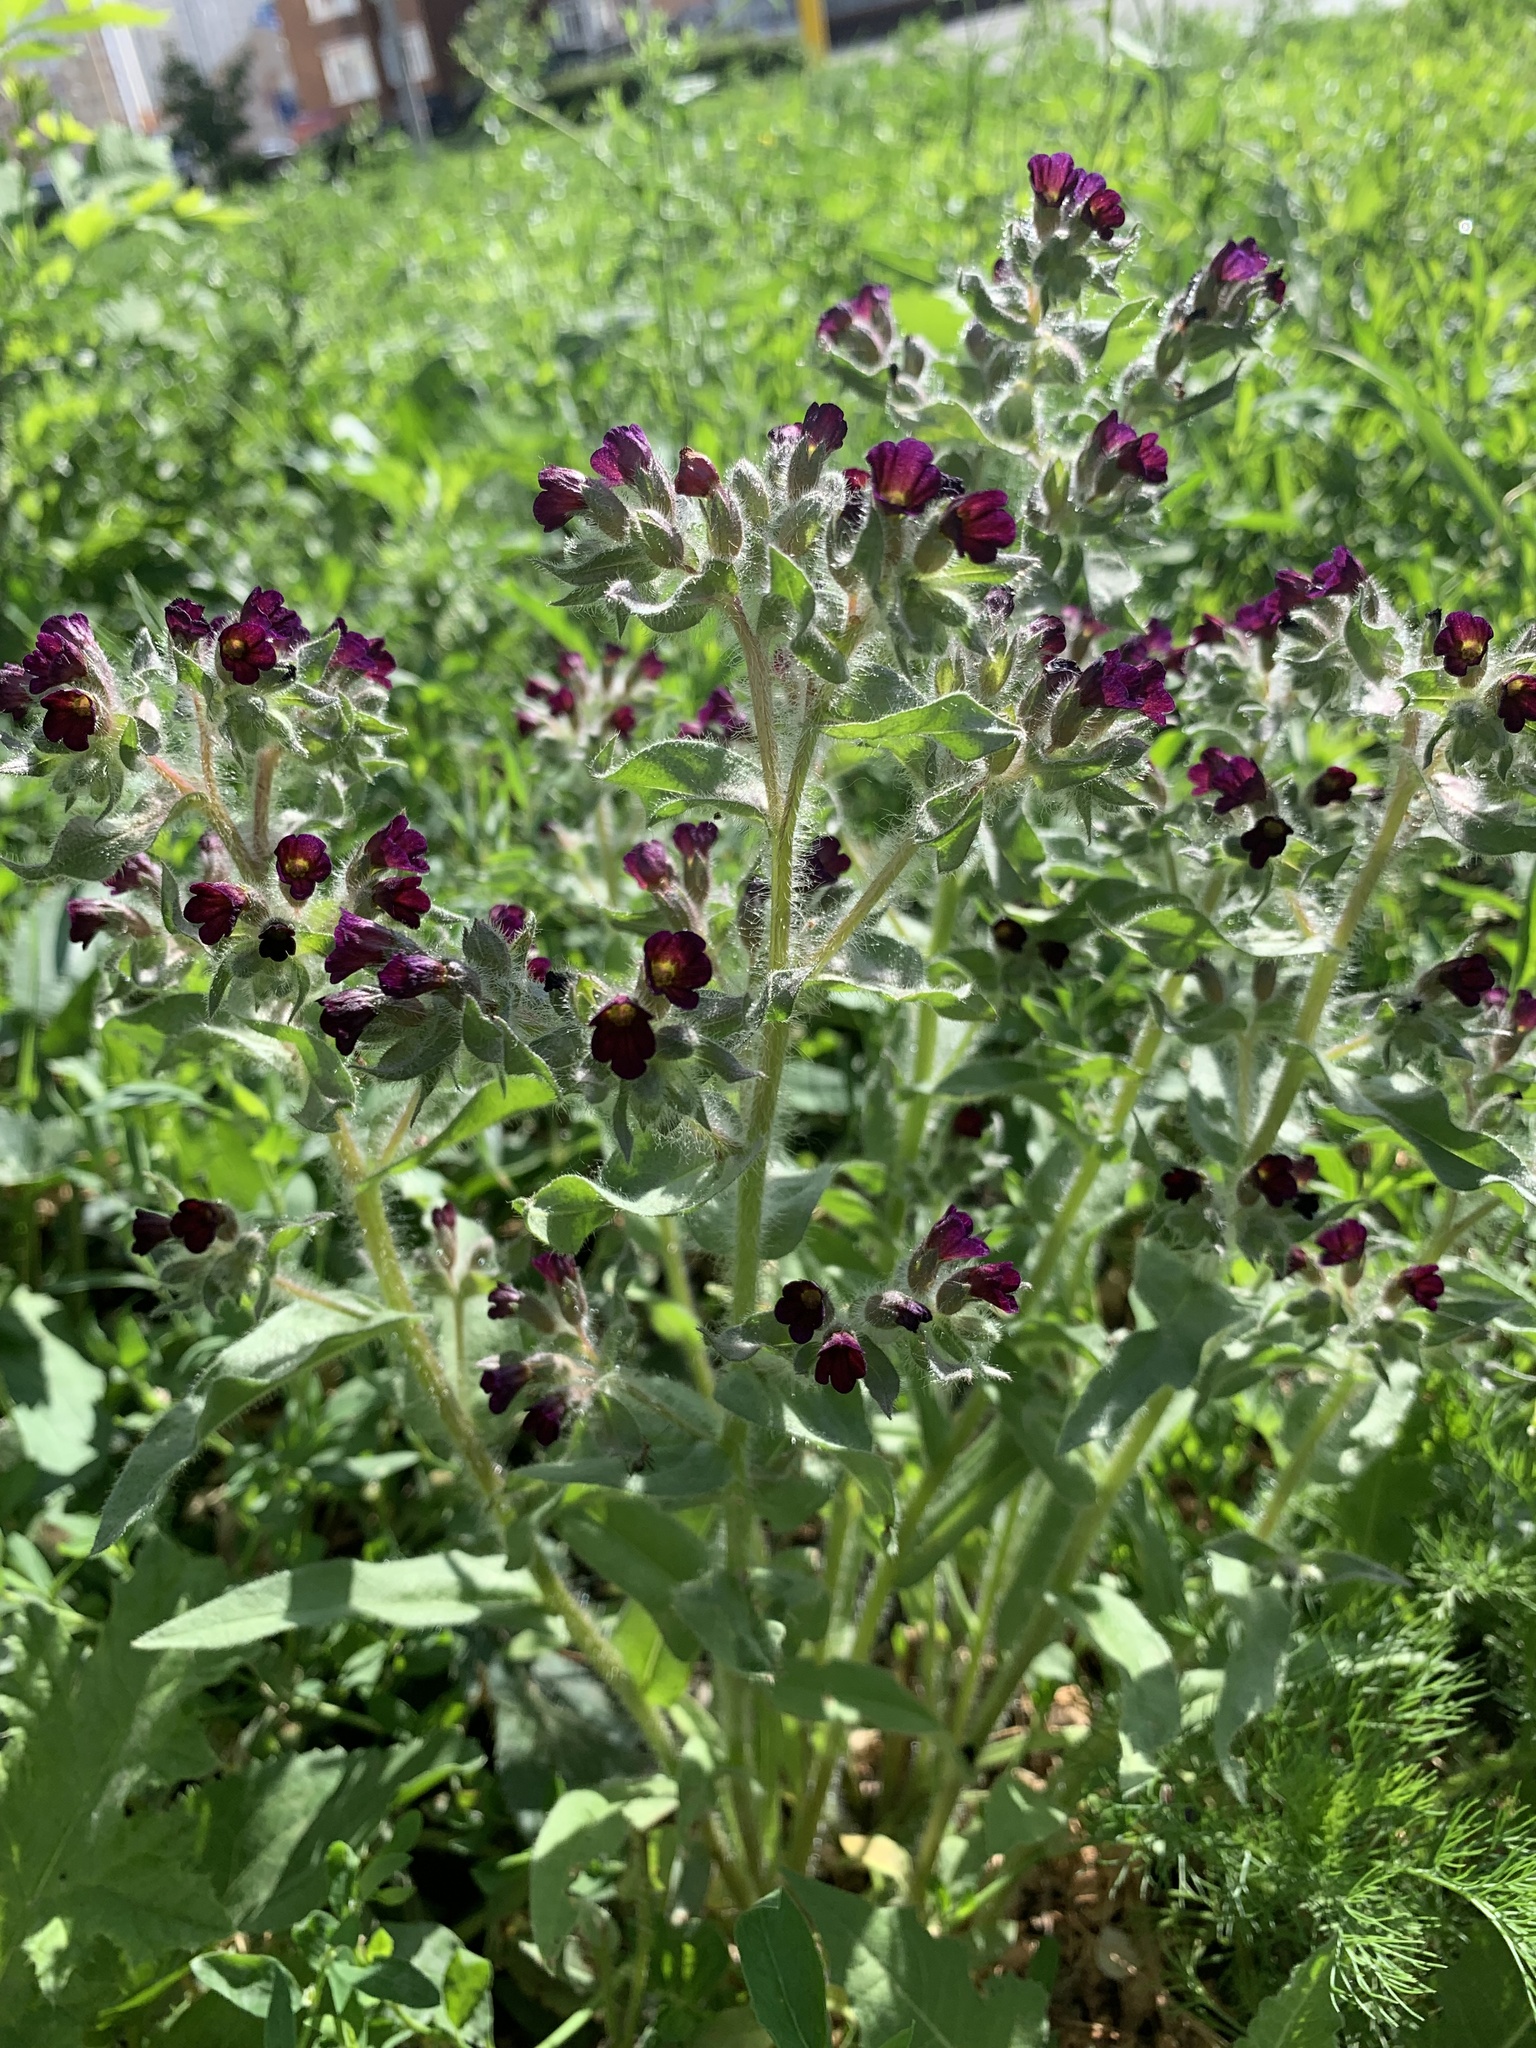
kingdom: Plantae
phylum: Tracheophyta
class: Magnoliopsida
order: Boraginales
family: Boraginaceae
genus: Nonea
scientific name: Nonea pulla
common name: Brown nonea
